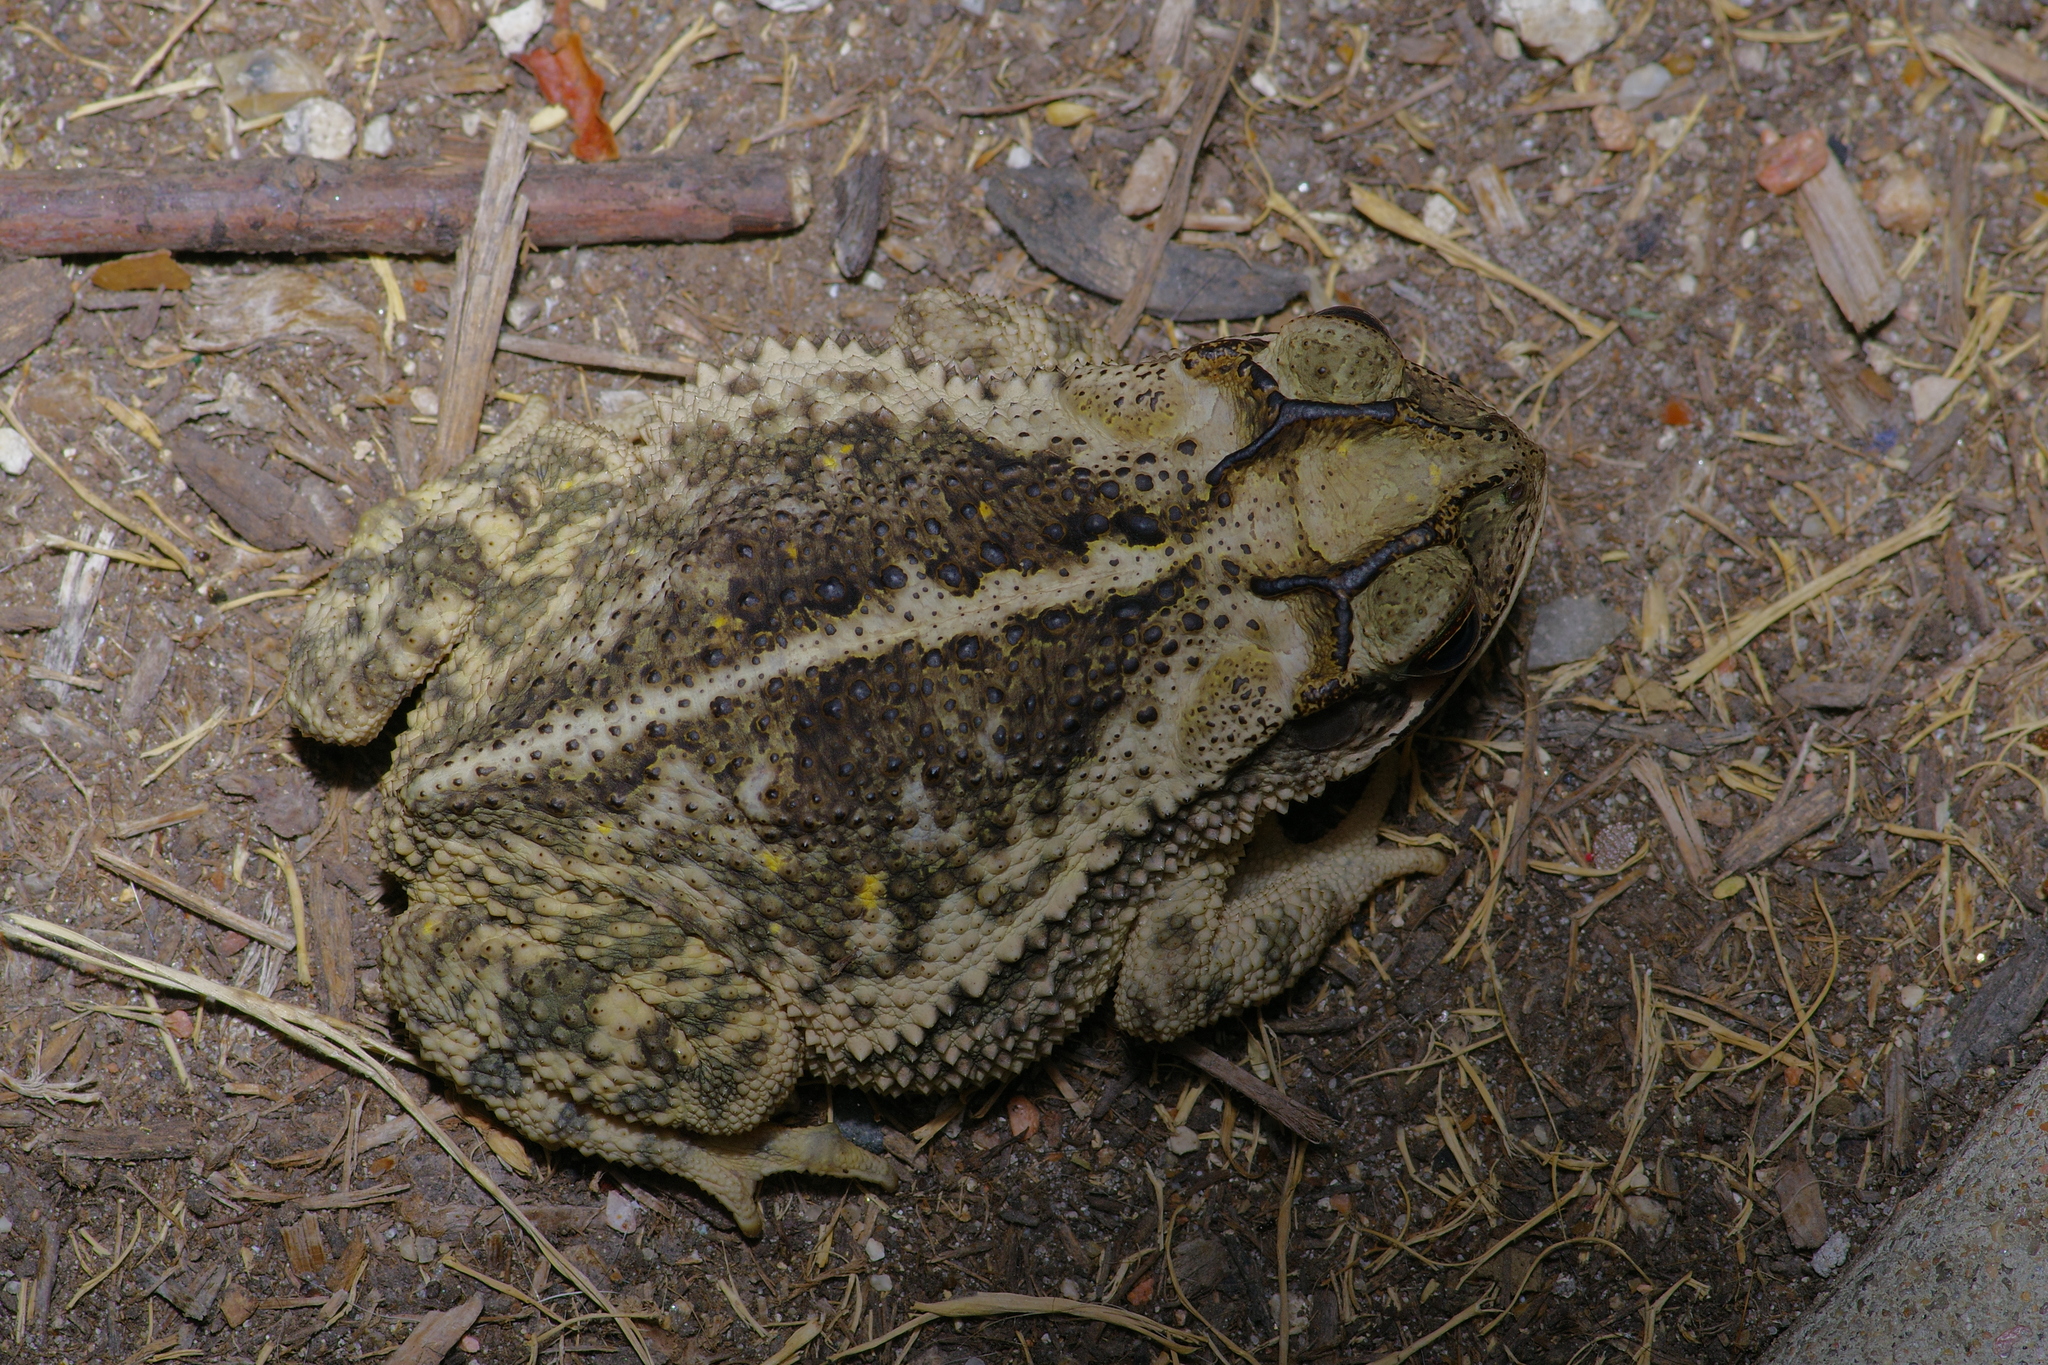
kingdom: Animalia
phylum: Chordata
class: Amphibia
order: Anura
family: Bufonidae
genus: Incilius
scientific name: Incilius nebulifer
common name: Gulf coast toad
